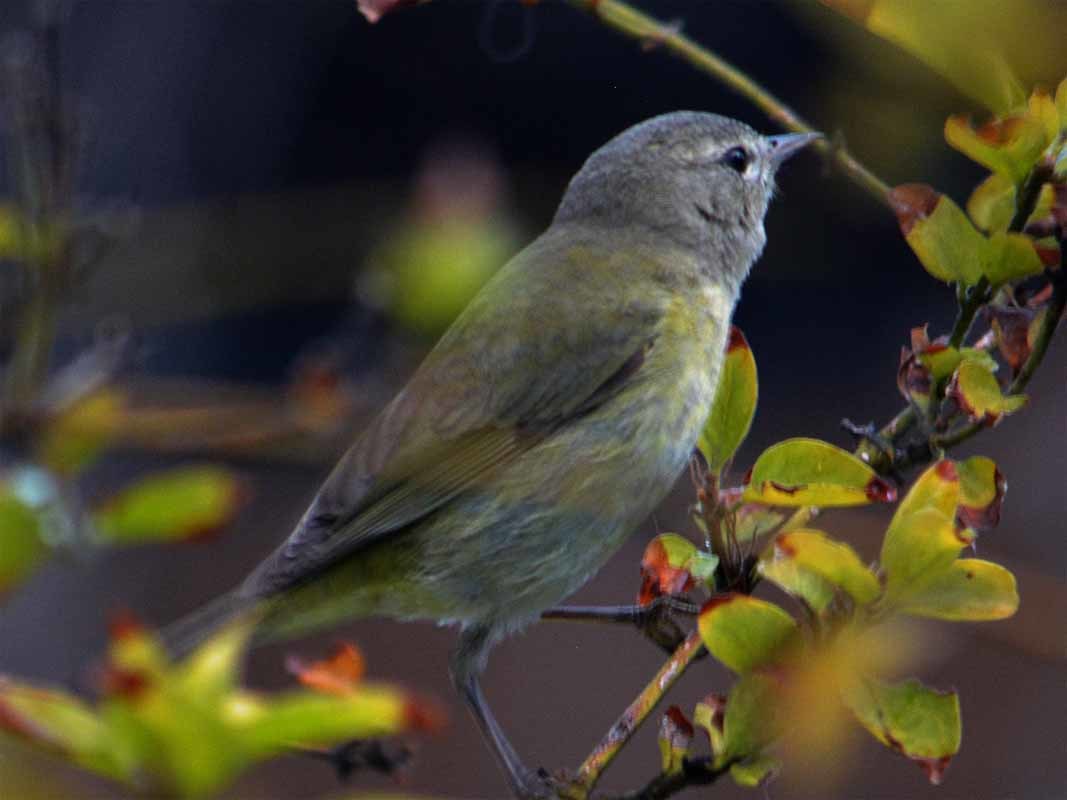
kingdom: Animalia
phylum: Chordata
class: Aves
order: Passeriformes
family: Parulidae
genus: Leiothlypis
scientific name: Leiothlypis celata
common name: Orange-crowned warbler
